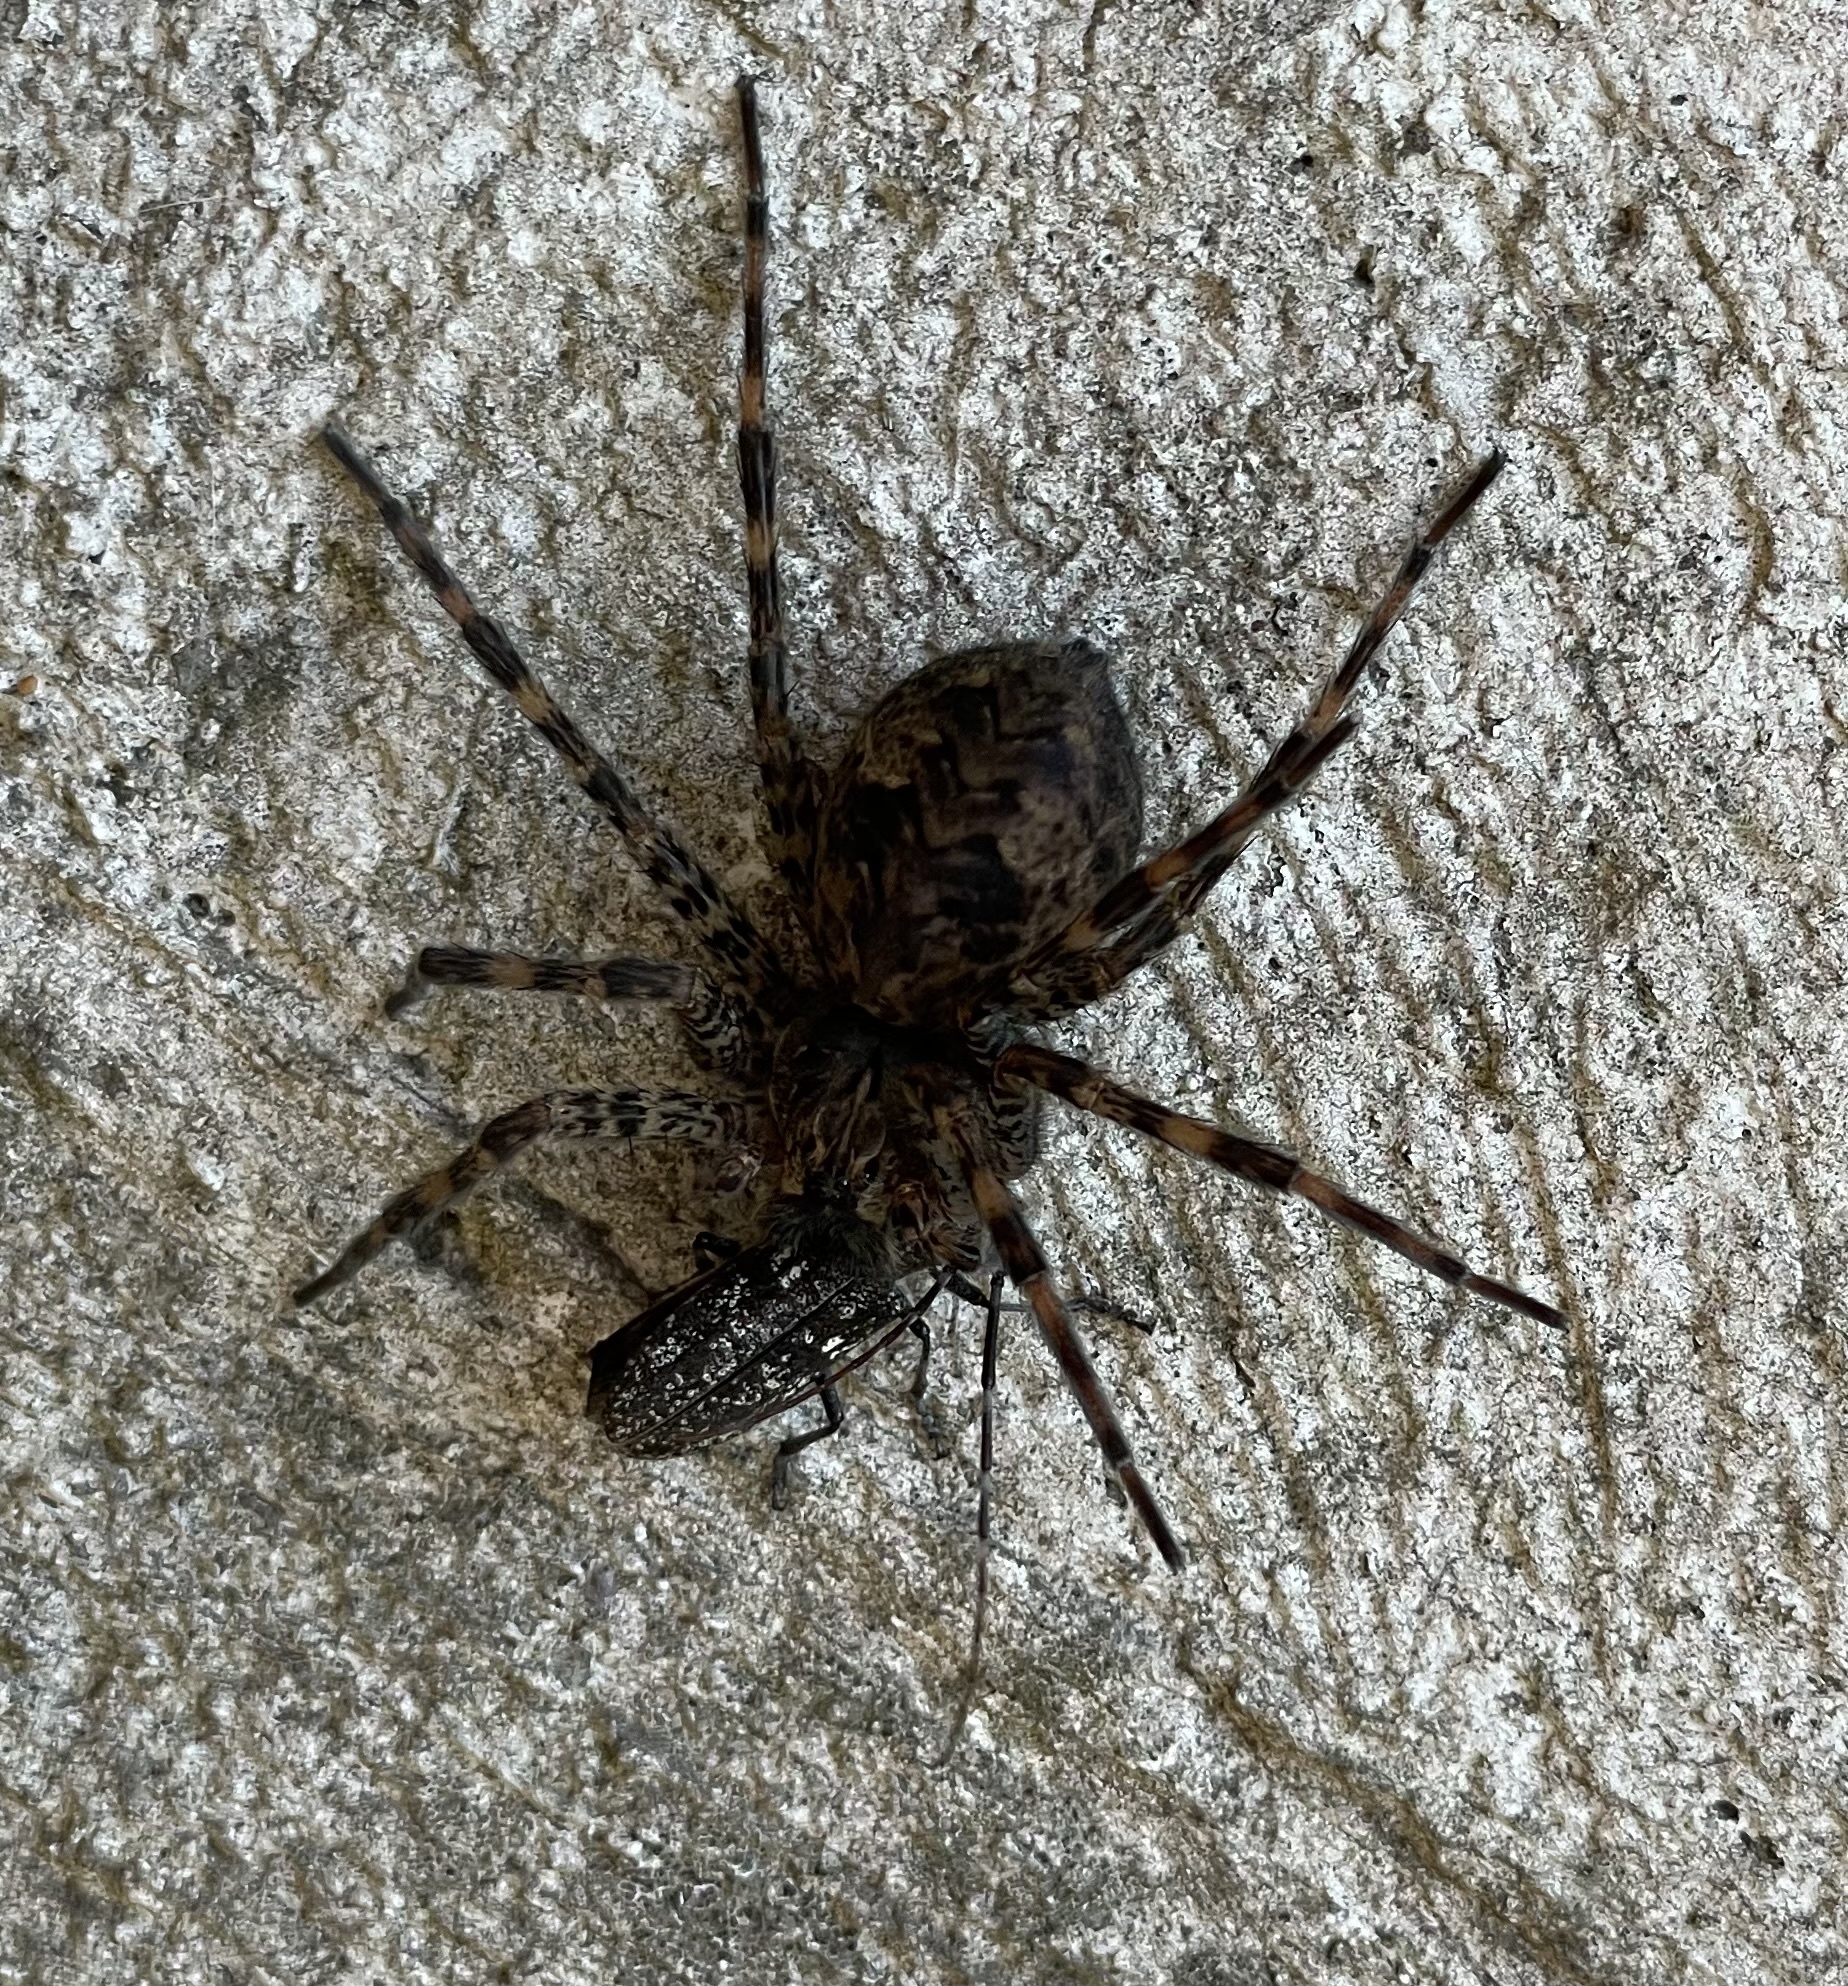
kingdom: Animalia
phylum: Arthropoda
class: Arachnida
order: Araneae
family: Pisauridae
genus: Dolomedes
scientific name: Dolomedes tenebrosus
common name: Dark fishing spider
